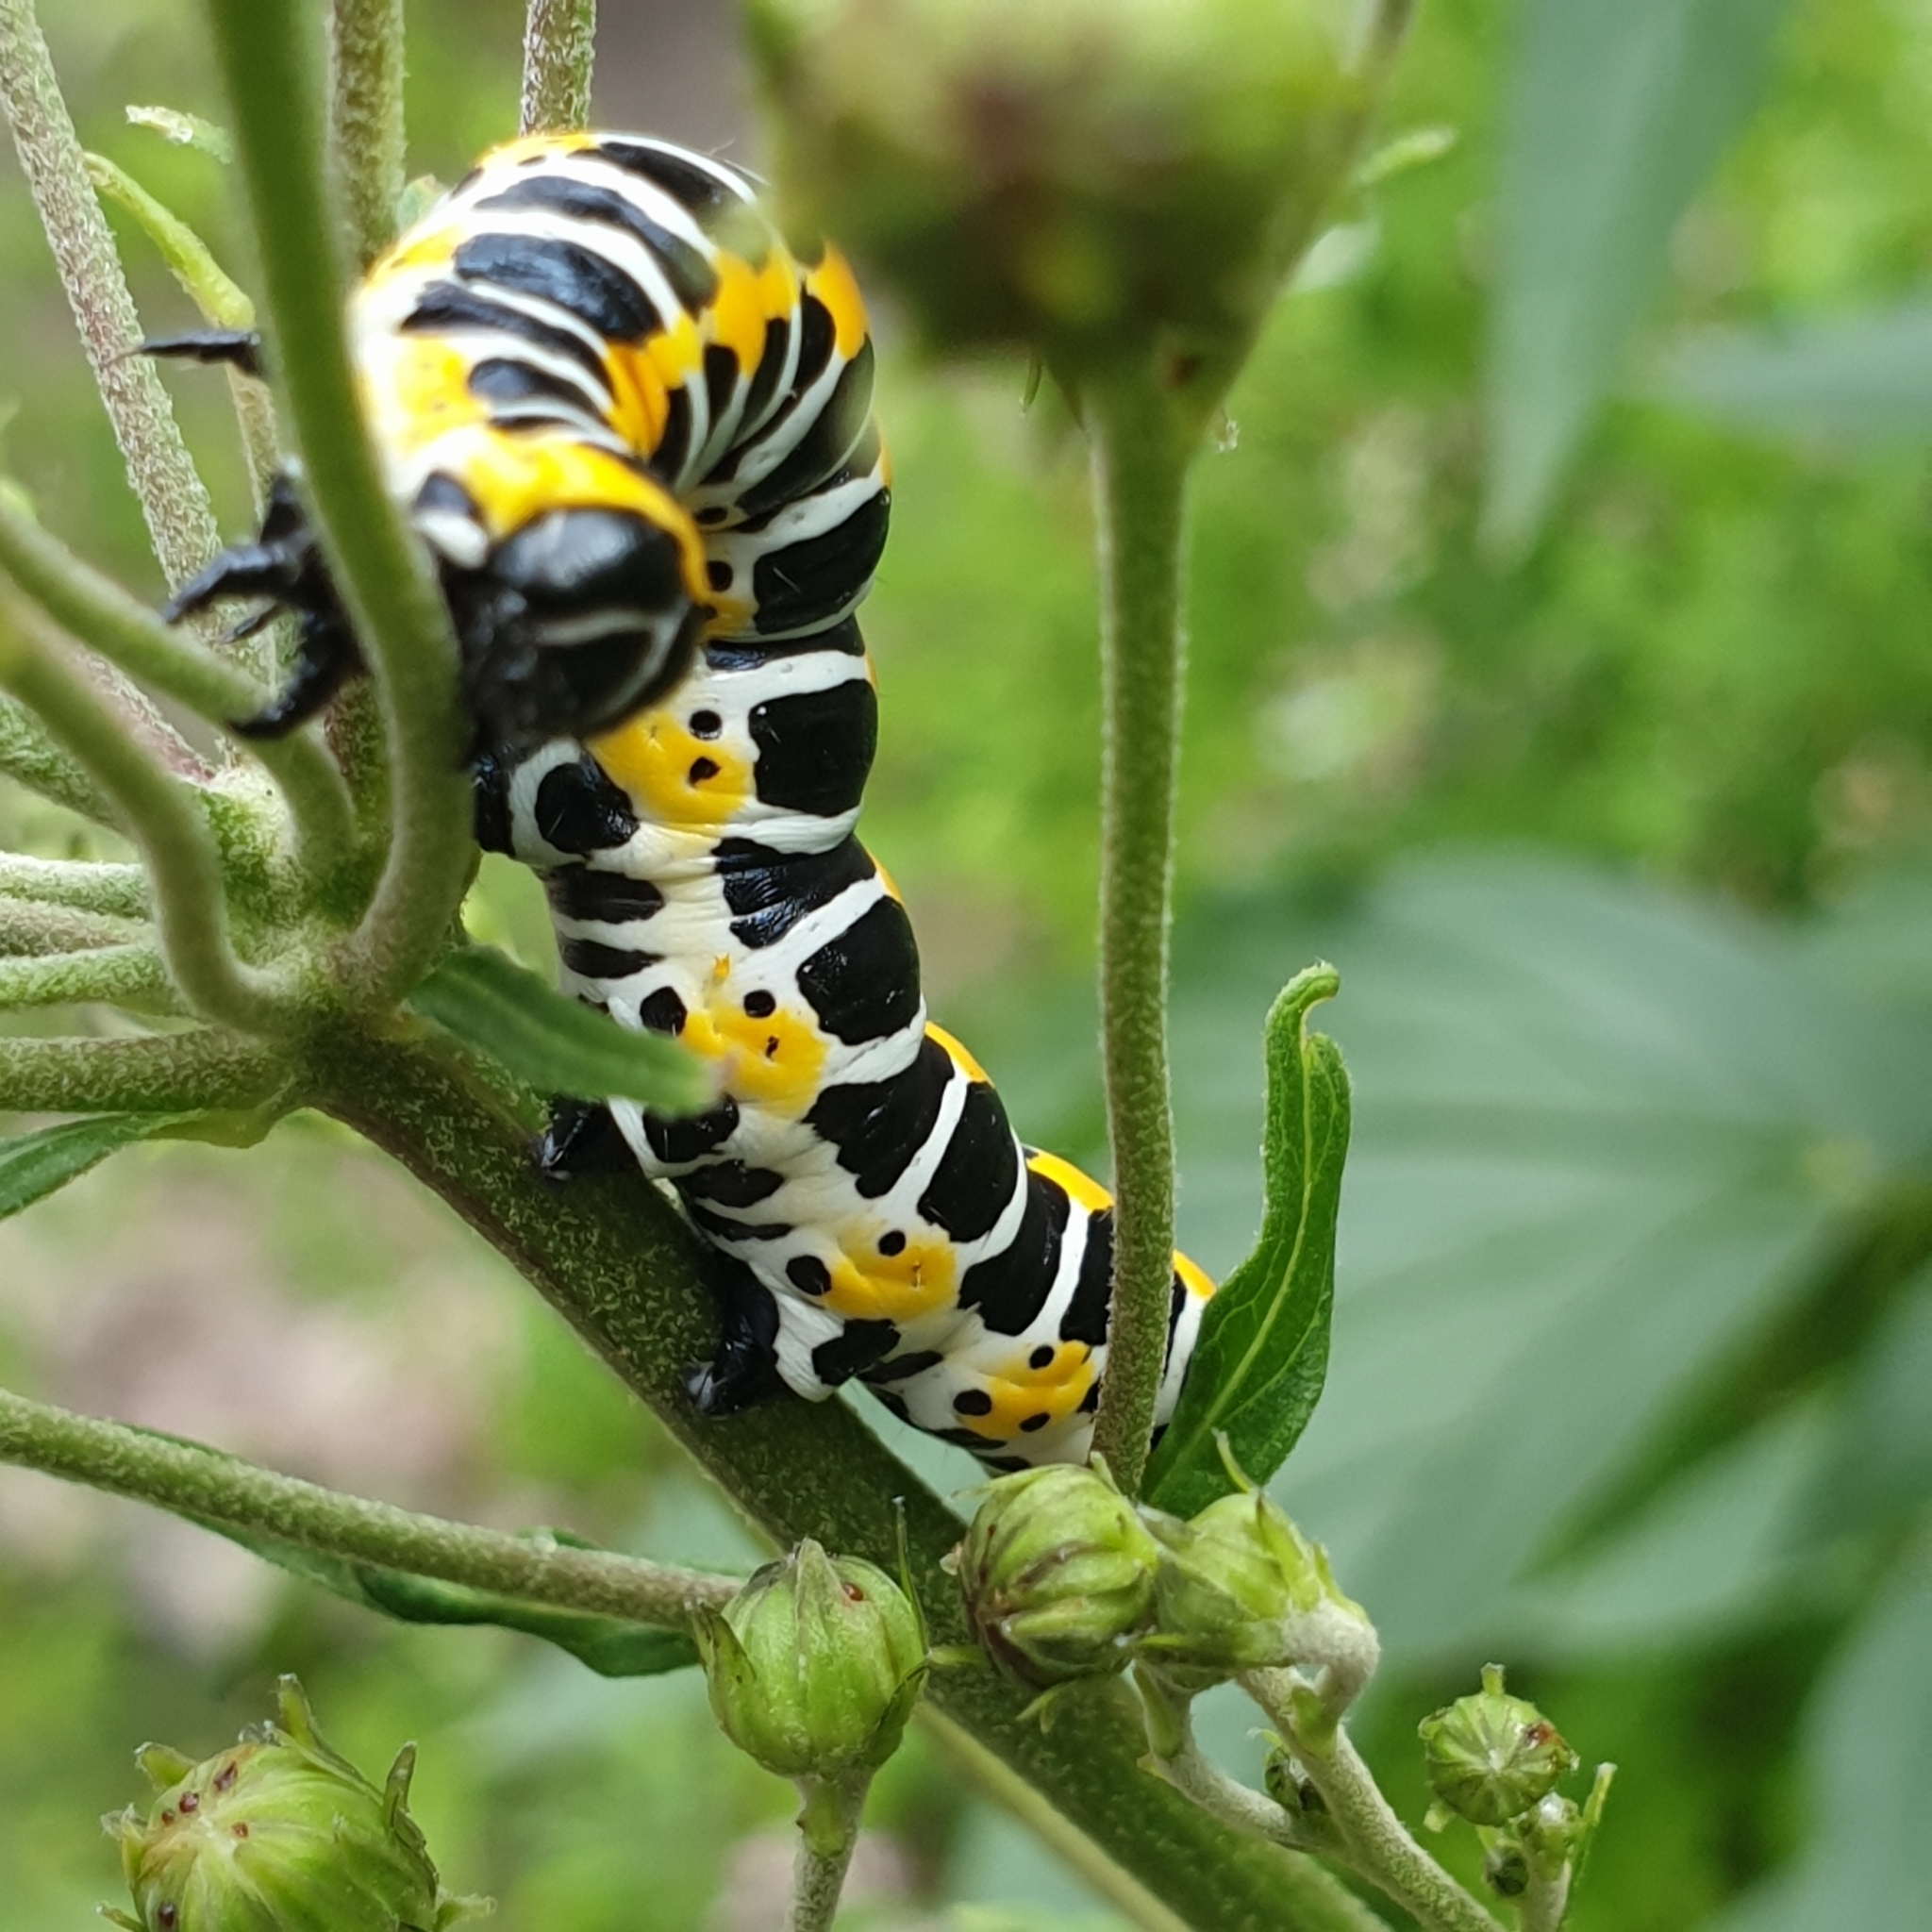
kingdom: Animalia
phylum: Arthropoda
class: Insecta
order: Lepidoptera
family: Noctuidae
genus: Cucullia
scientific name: Cucullia lactucae
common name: Lettuce shark
